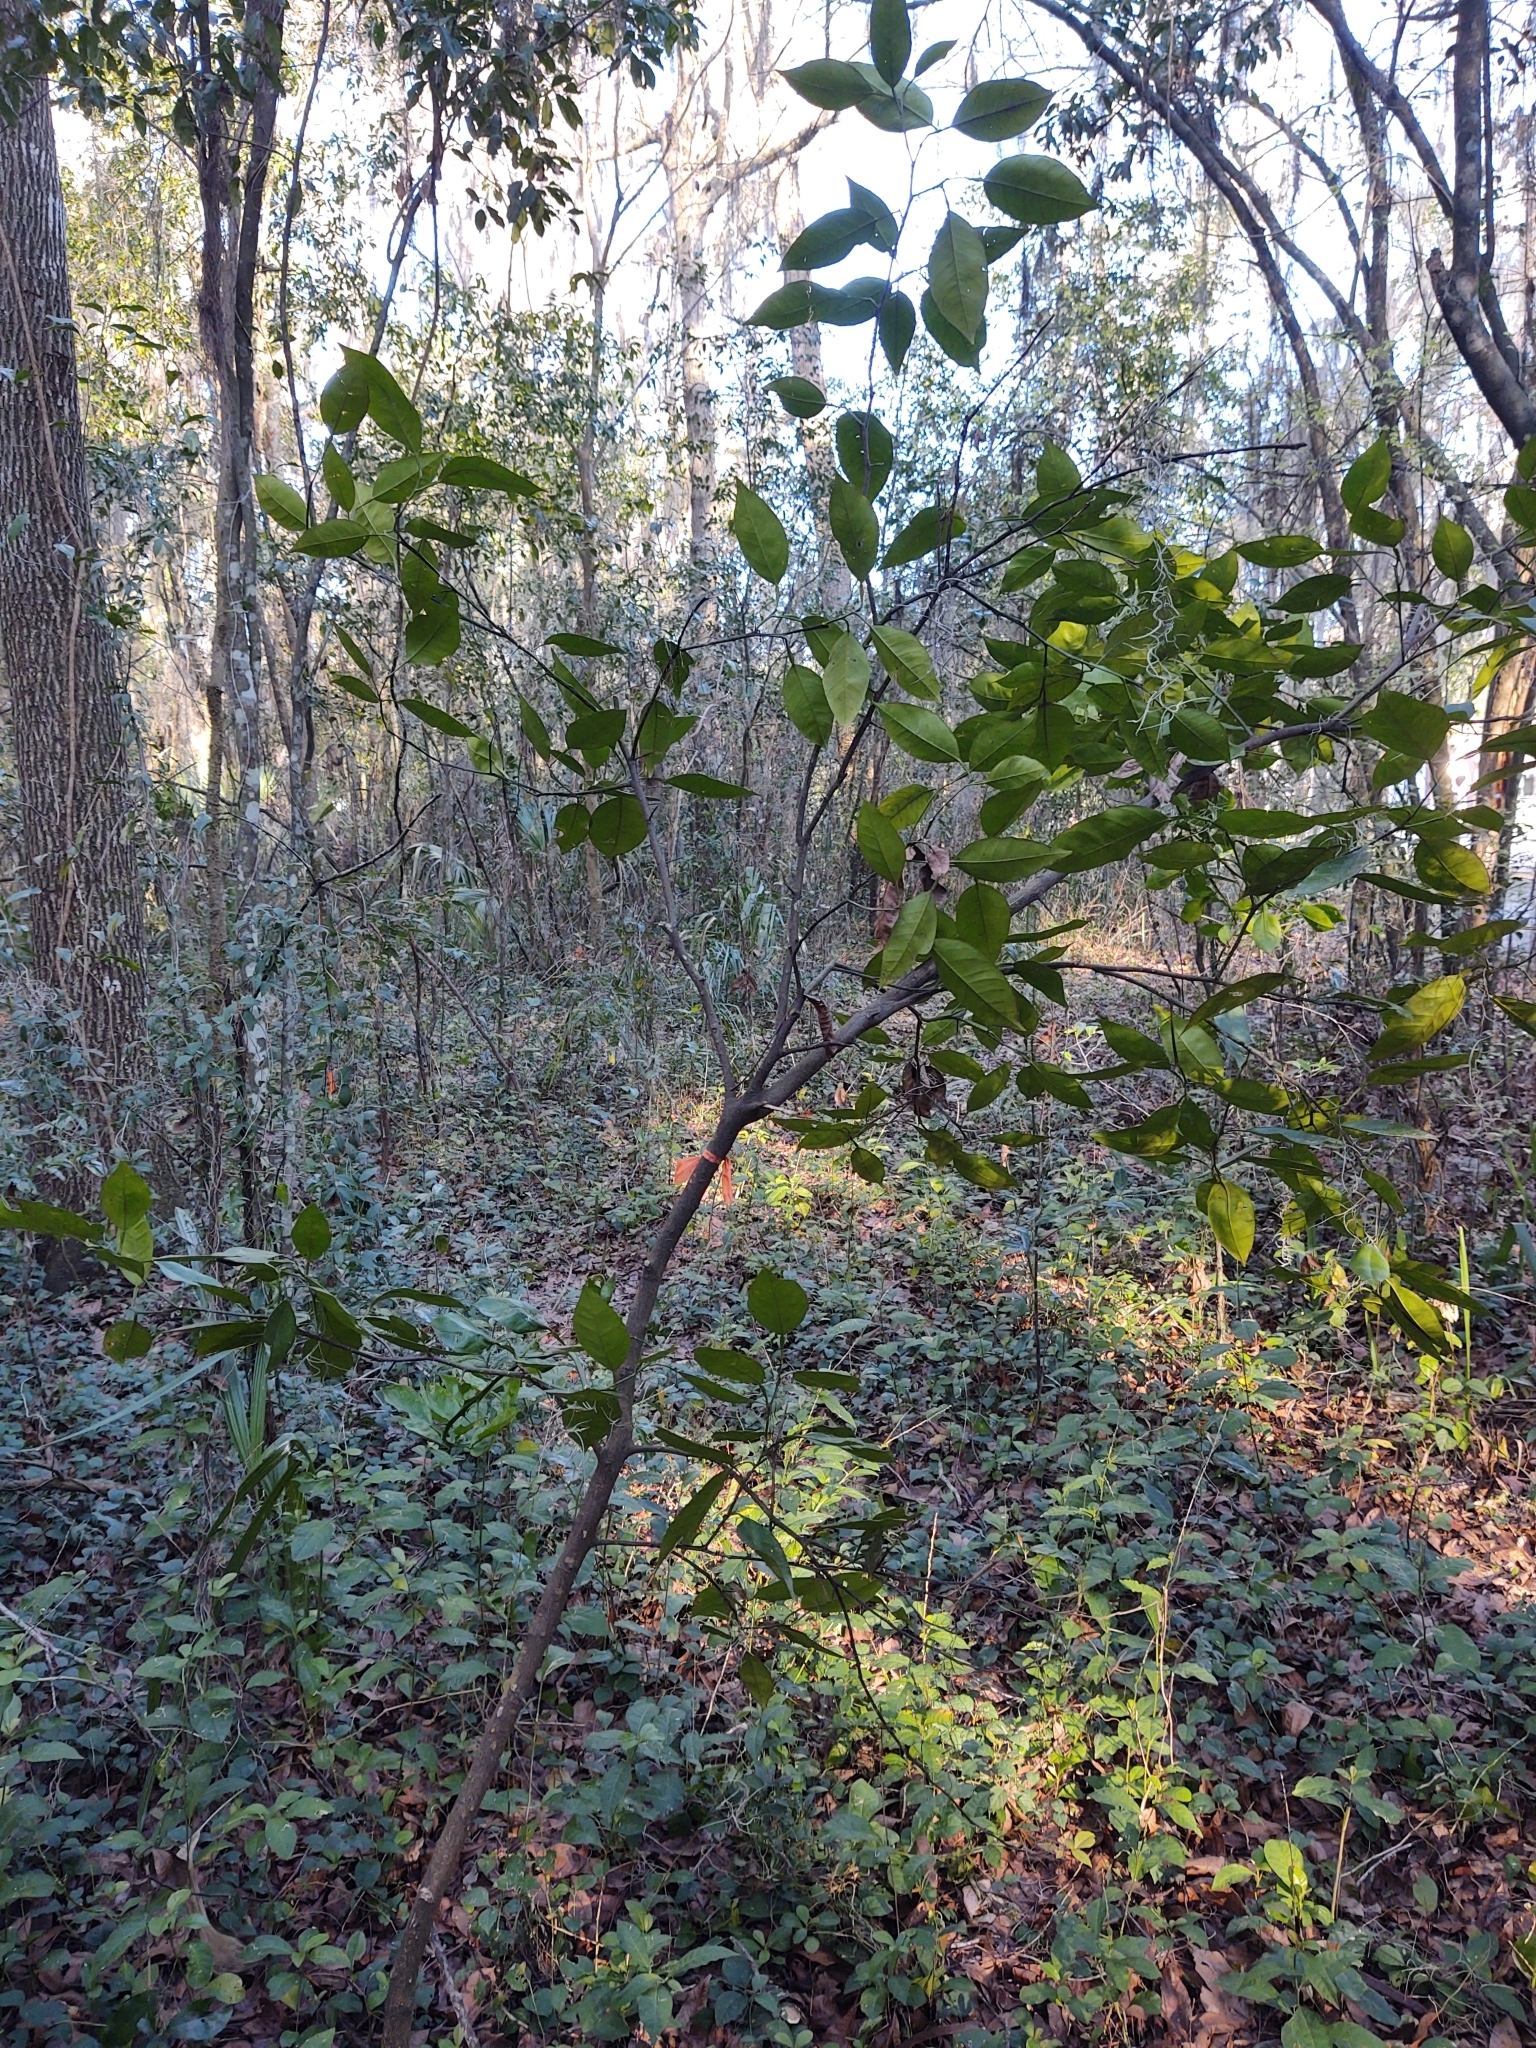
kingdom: Plantae
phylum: Tracheophyta
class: Magnoliopsida
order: Sapindales
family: Rutaceae
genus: Citrus
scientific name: Citrus aurantium
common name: Sour orange
